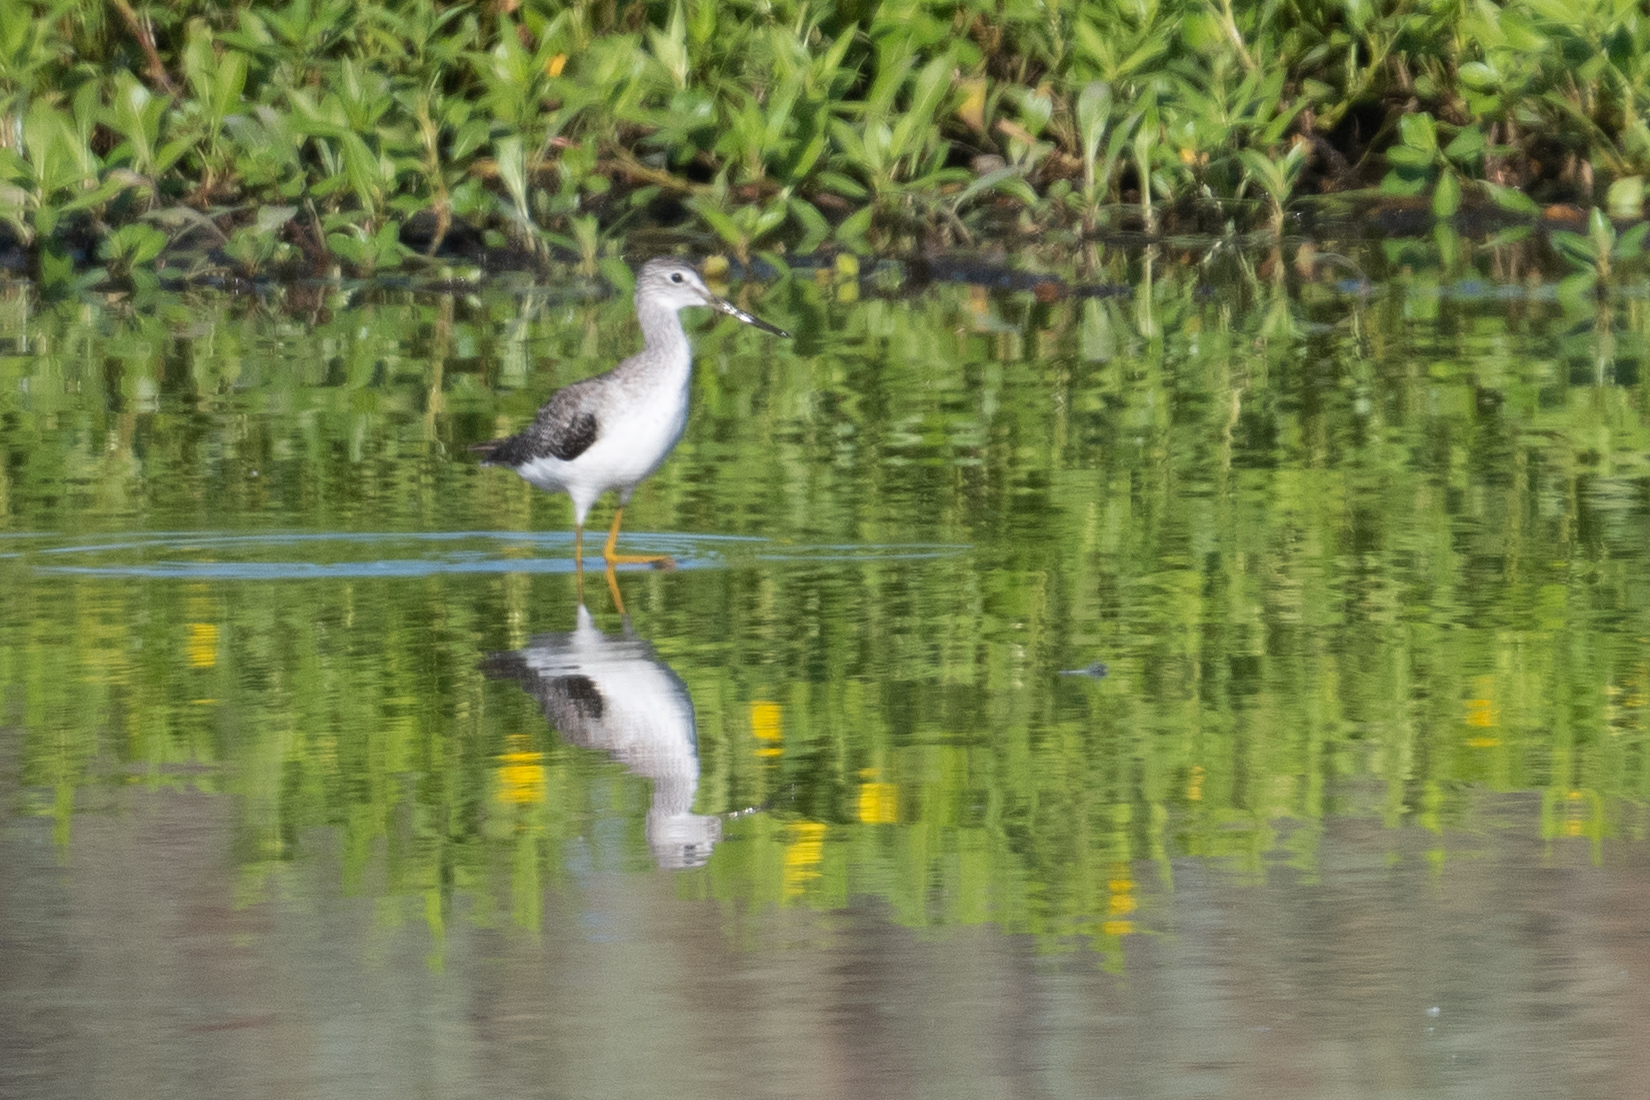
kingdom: Animalia
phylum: Chordata
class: Aves
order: Charadriiformes
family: Scolopacidae
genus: Tringa
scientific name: Tringa melanoleuca
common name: Greater yellowlegs
